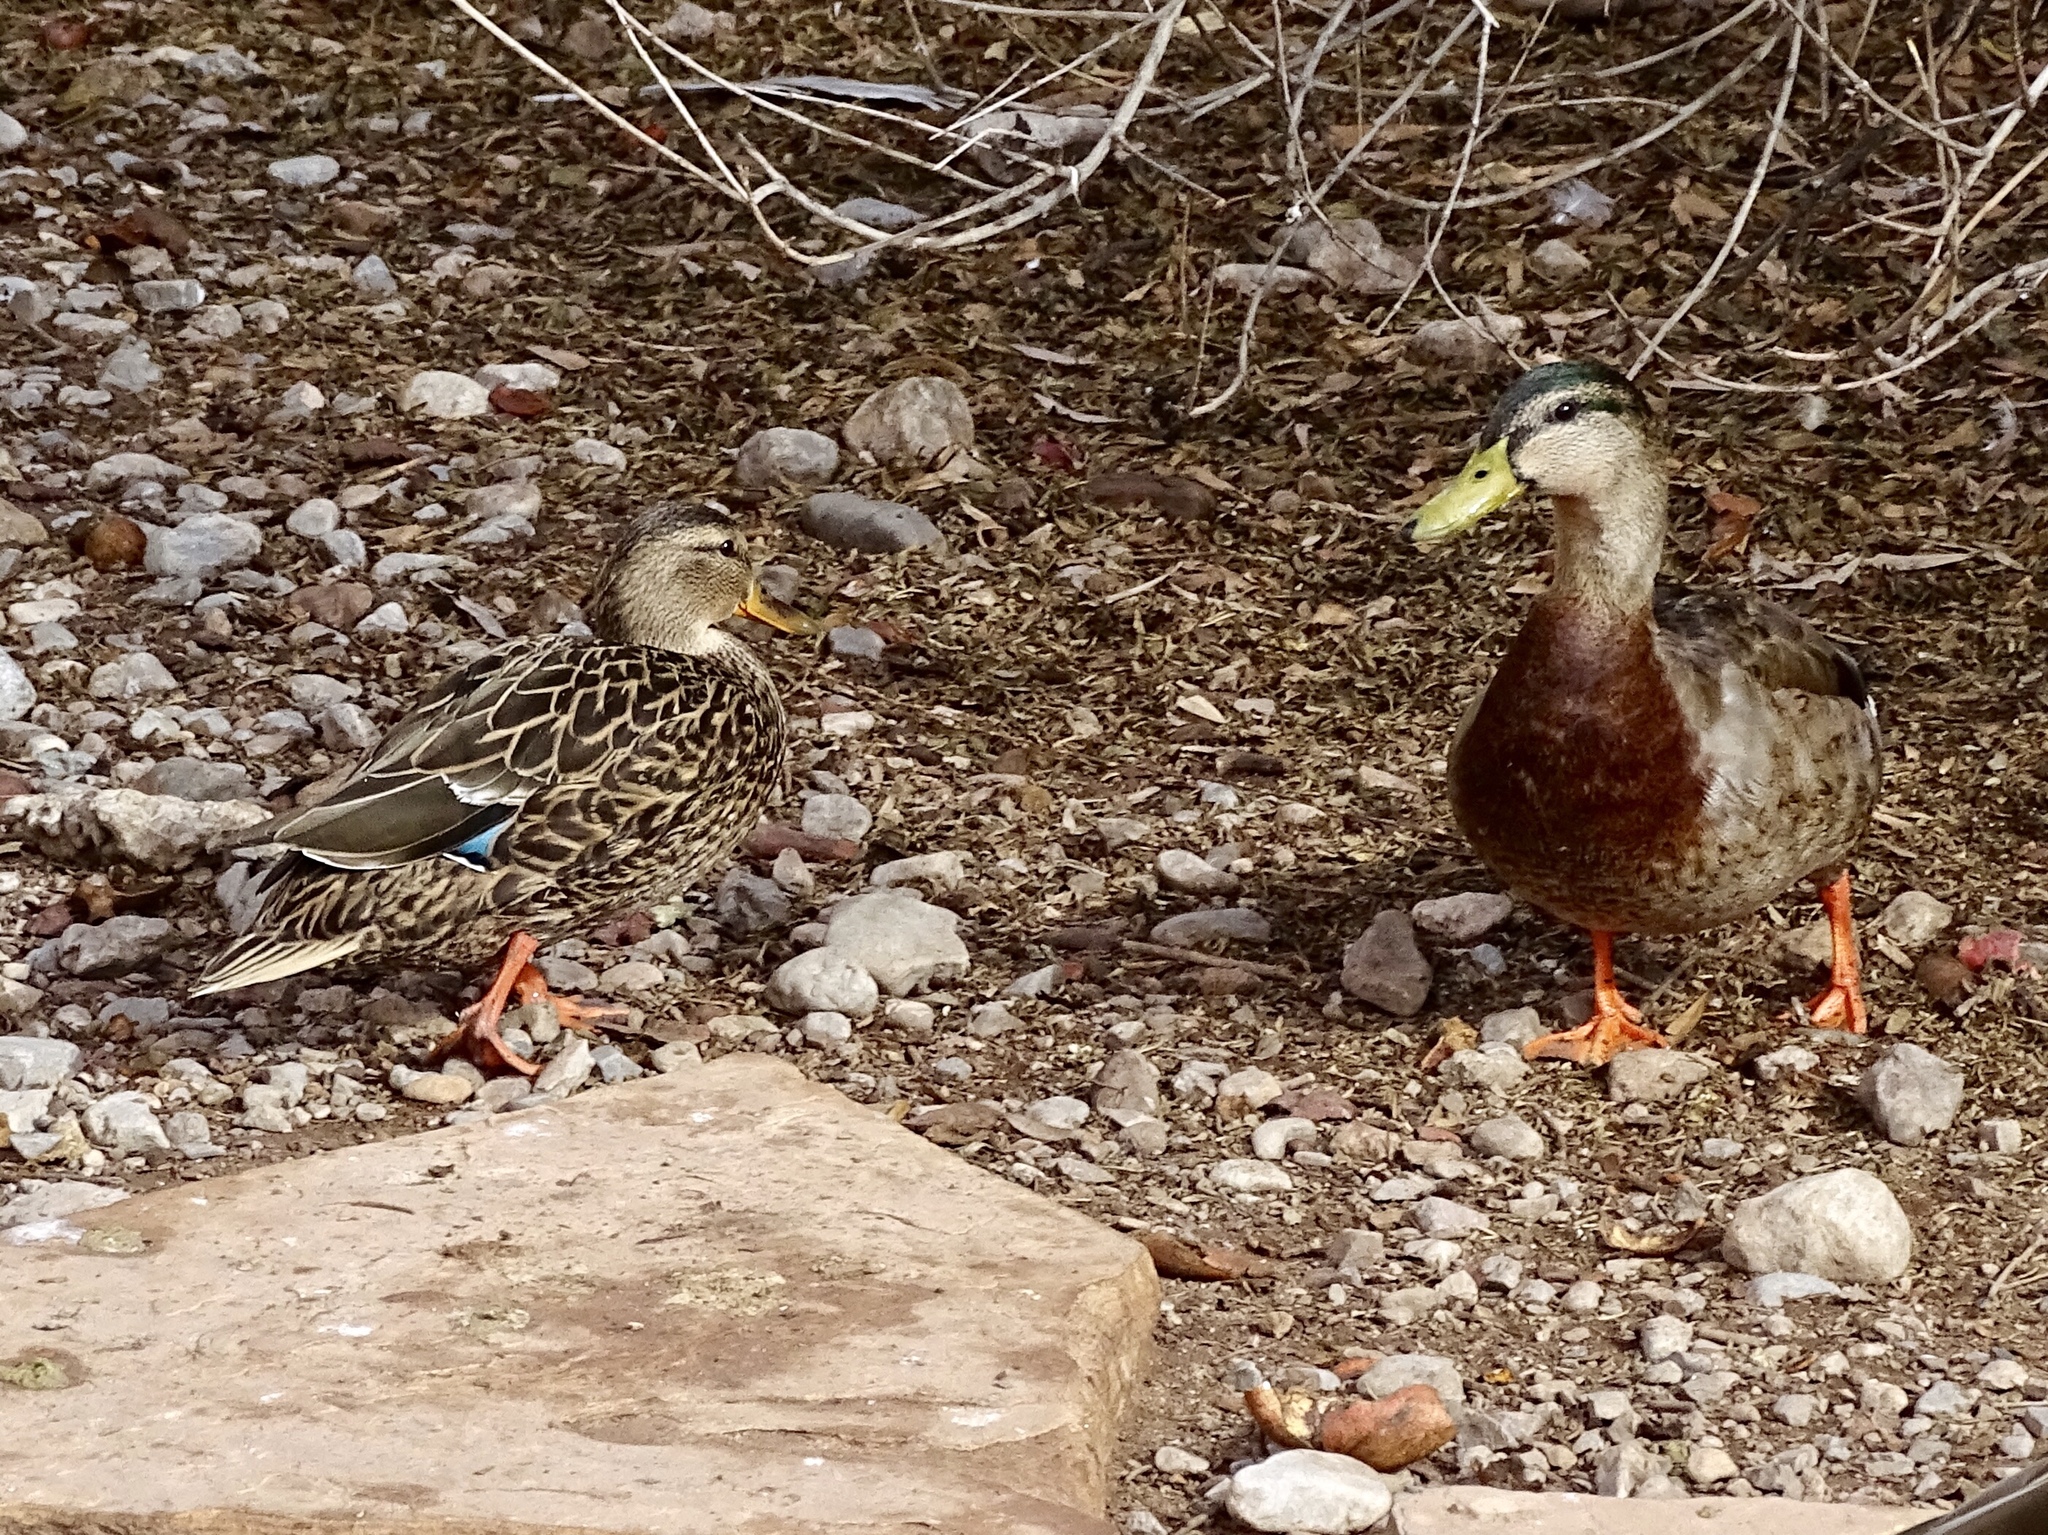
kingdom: Animalia
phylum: Chordata
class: Aves
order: Anseriformes
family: Anatidae
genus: Anas
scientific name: Anas
